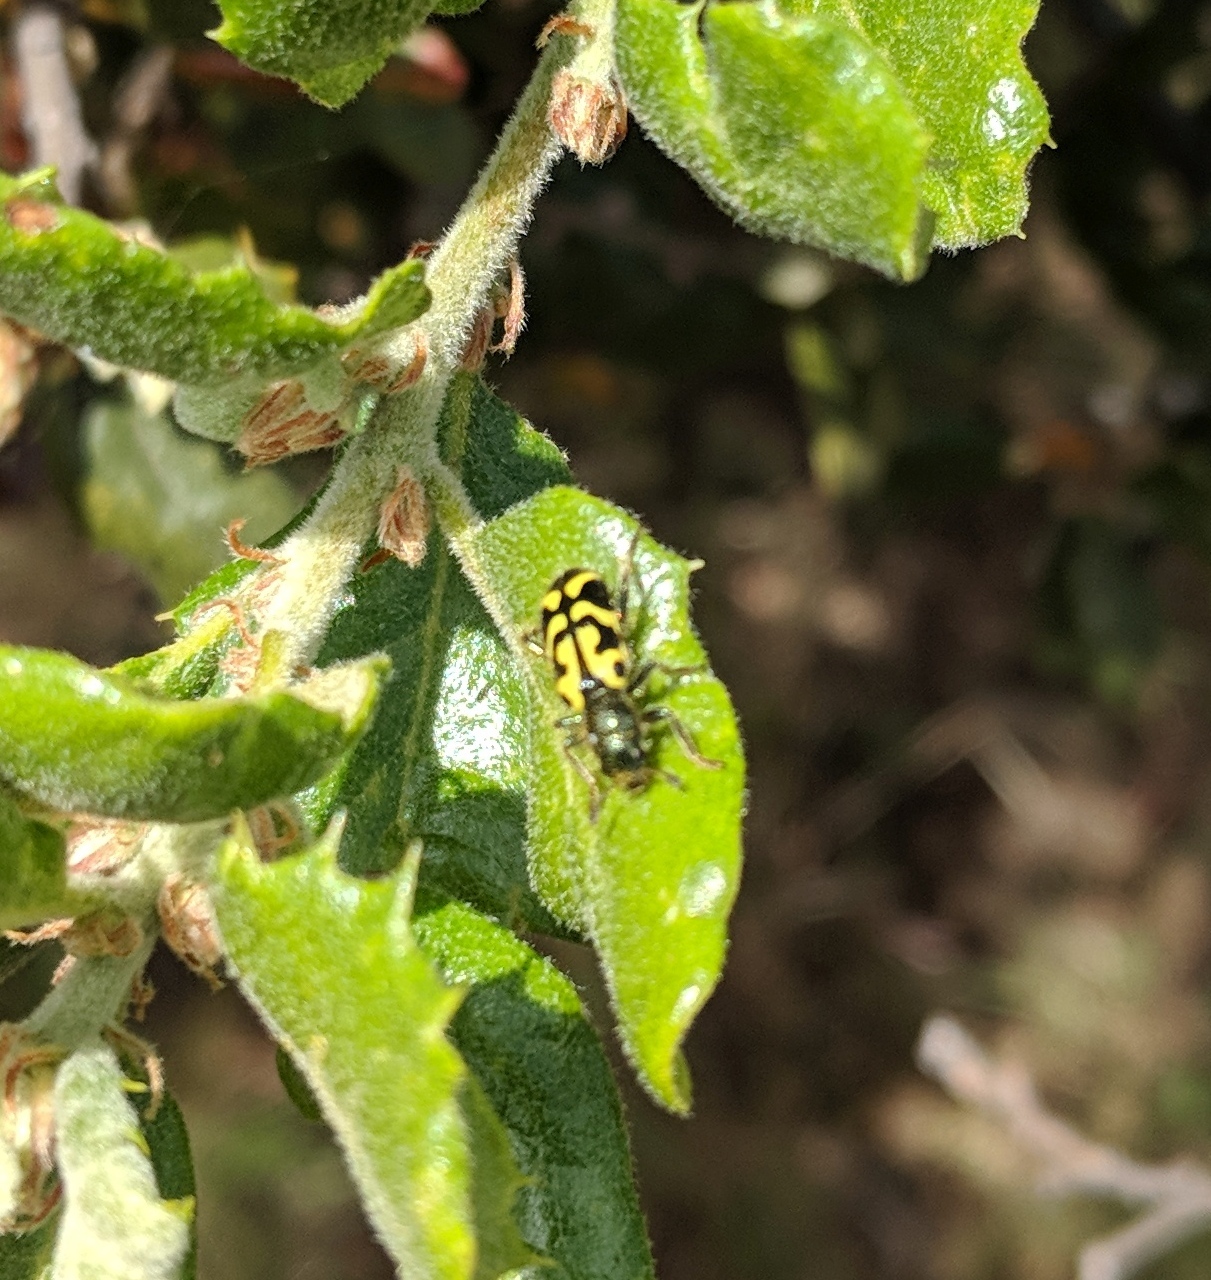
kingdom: Animalia
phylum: Arthropoda
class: Insecta
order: Coleoptera
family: Cleridae
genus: Trichodes
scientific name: Trichodes ornatus
